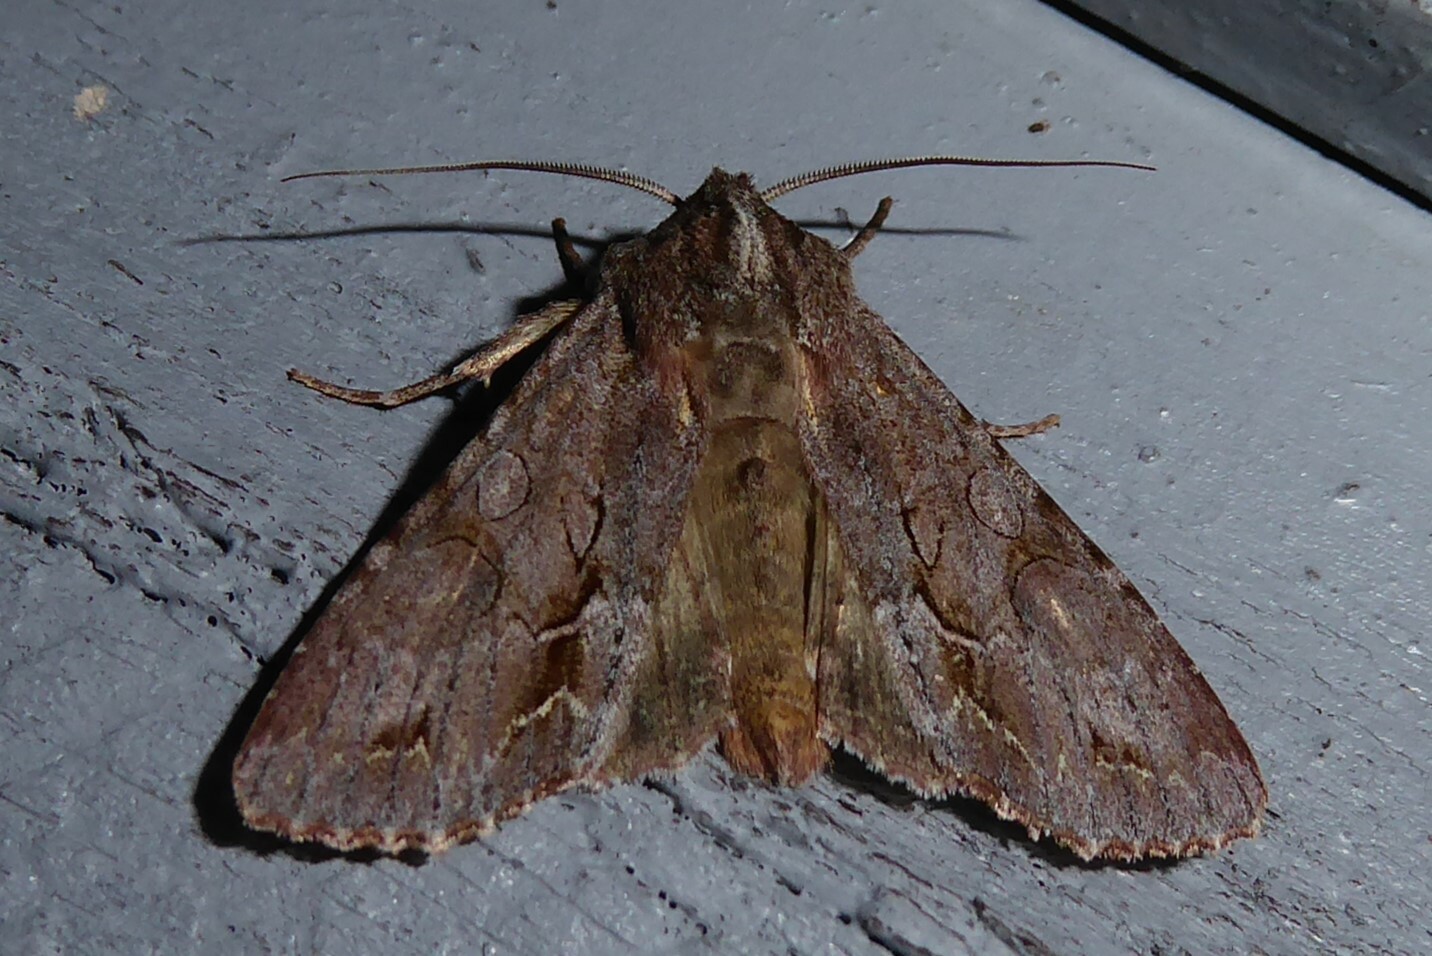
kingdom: Animalia
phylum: Arthropoda
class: Insecta
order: Lepidoptera
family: Noctuidae
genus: Ichneutica
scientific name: Ichneutica
